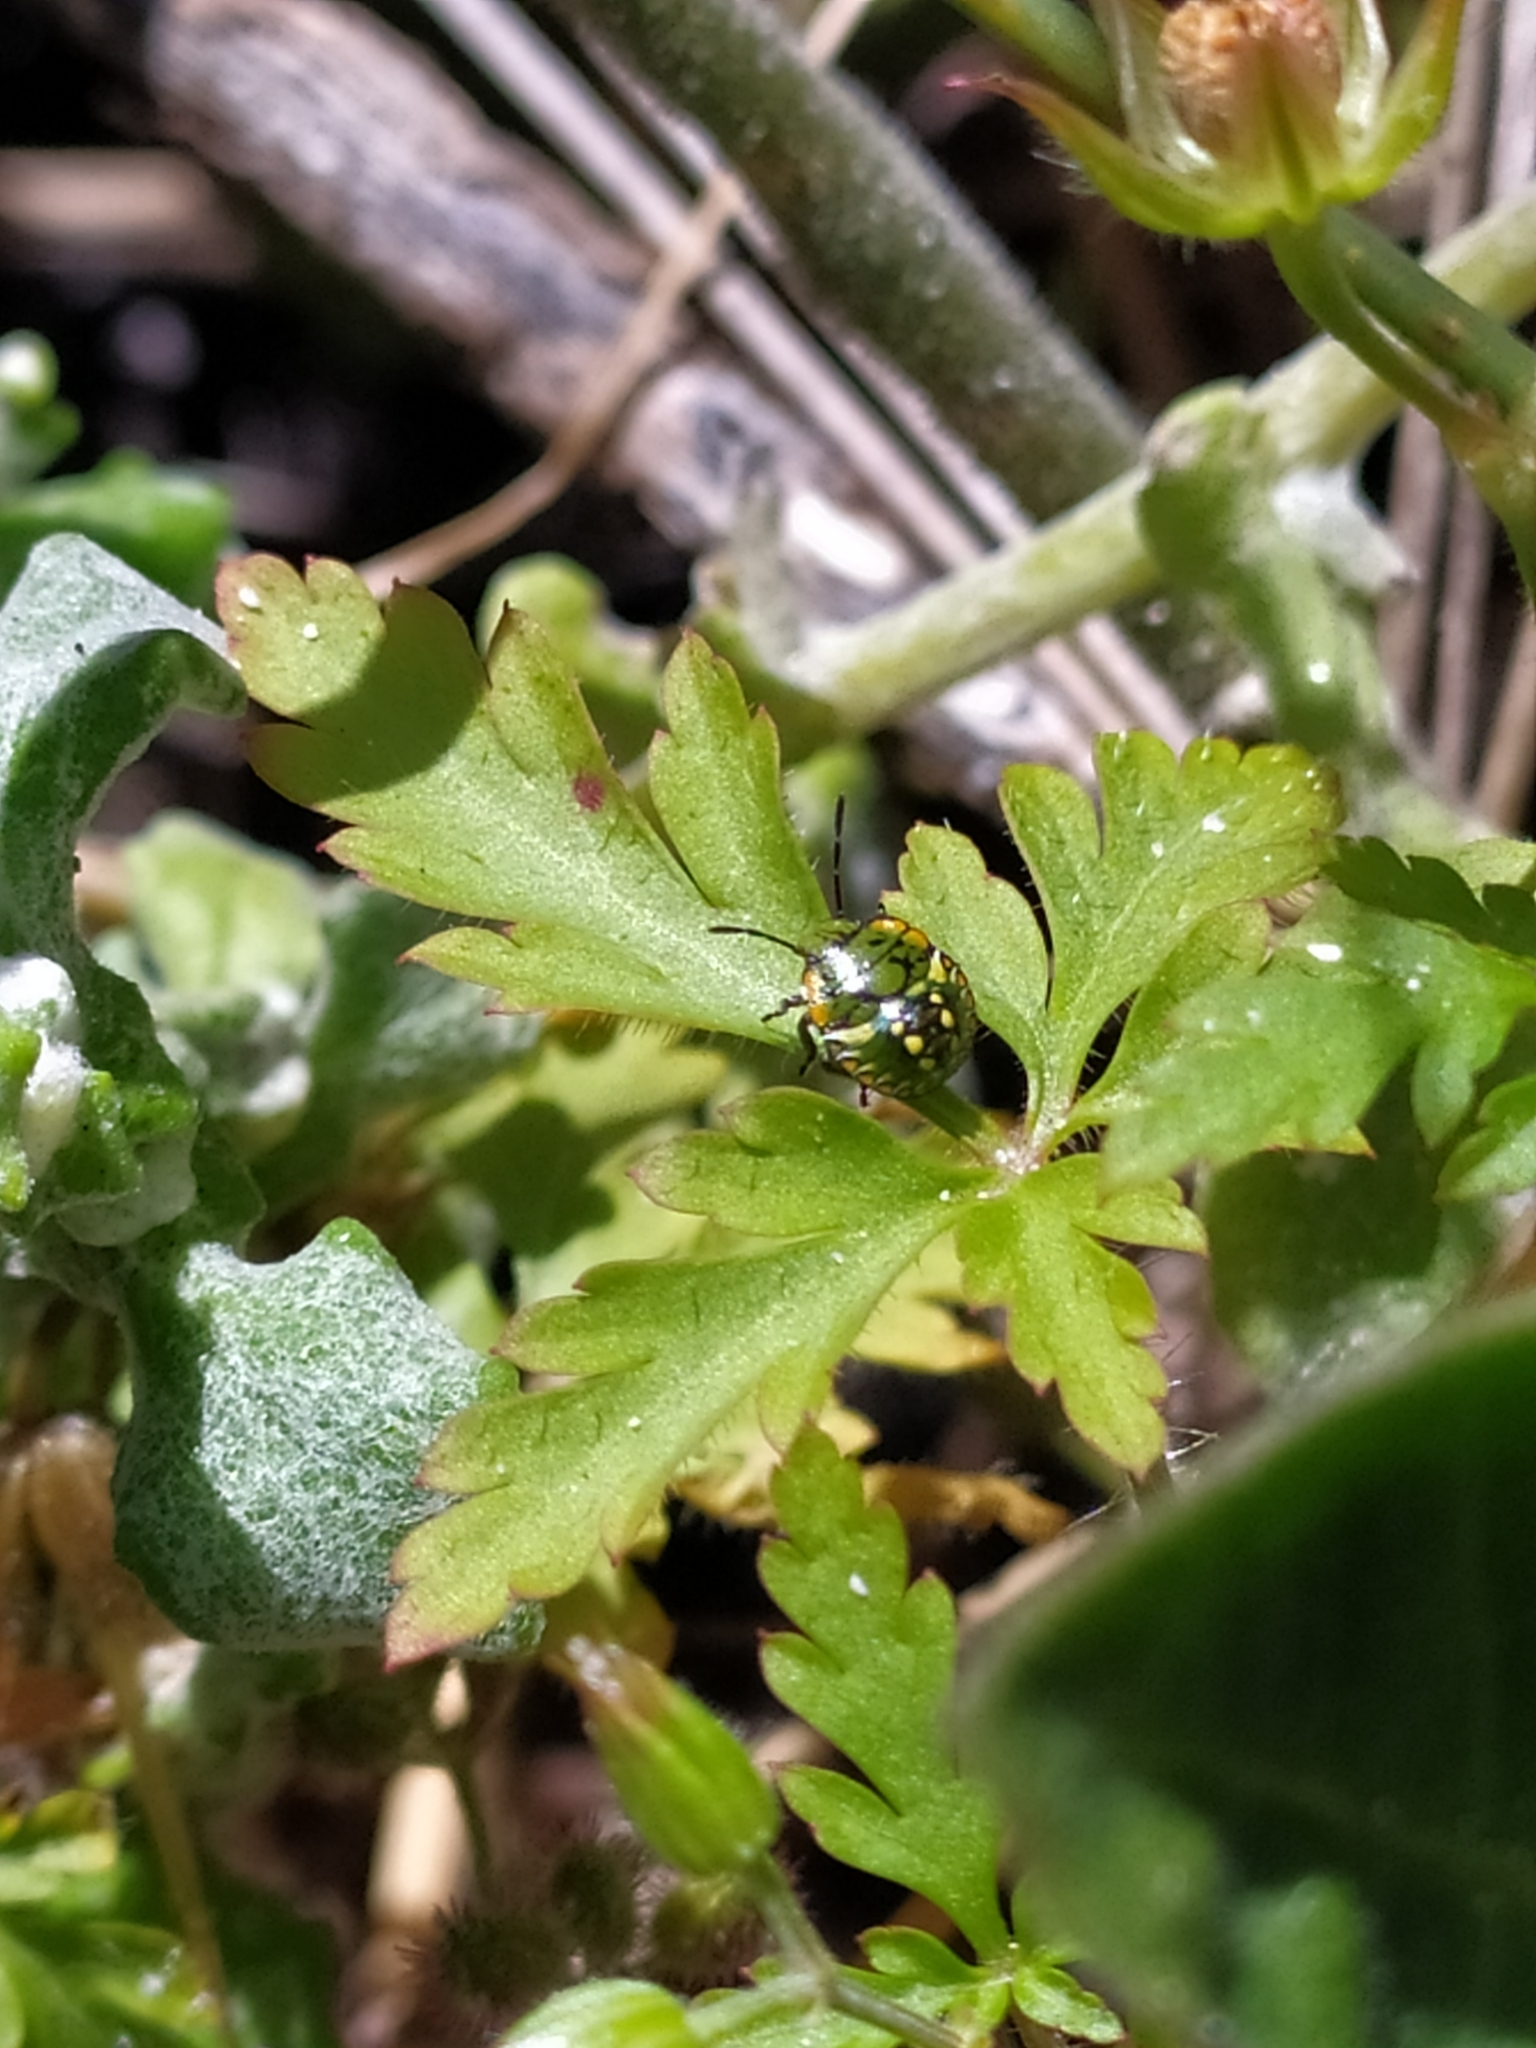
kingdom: Animalia
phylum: Arthropoda
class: Insecta
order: Hemiptera
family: Pentatomidae
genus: Nezara
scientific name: Nezara viridula
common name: Southern green stink bug
